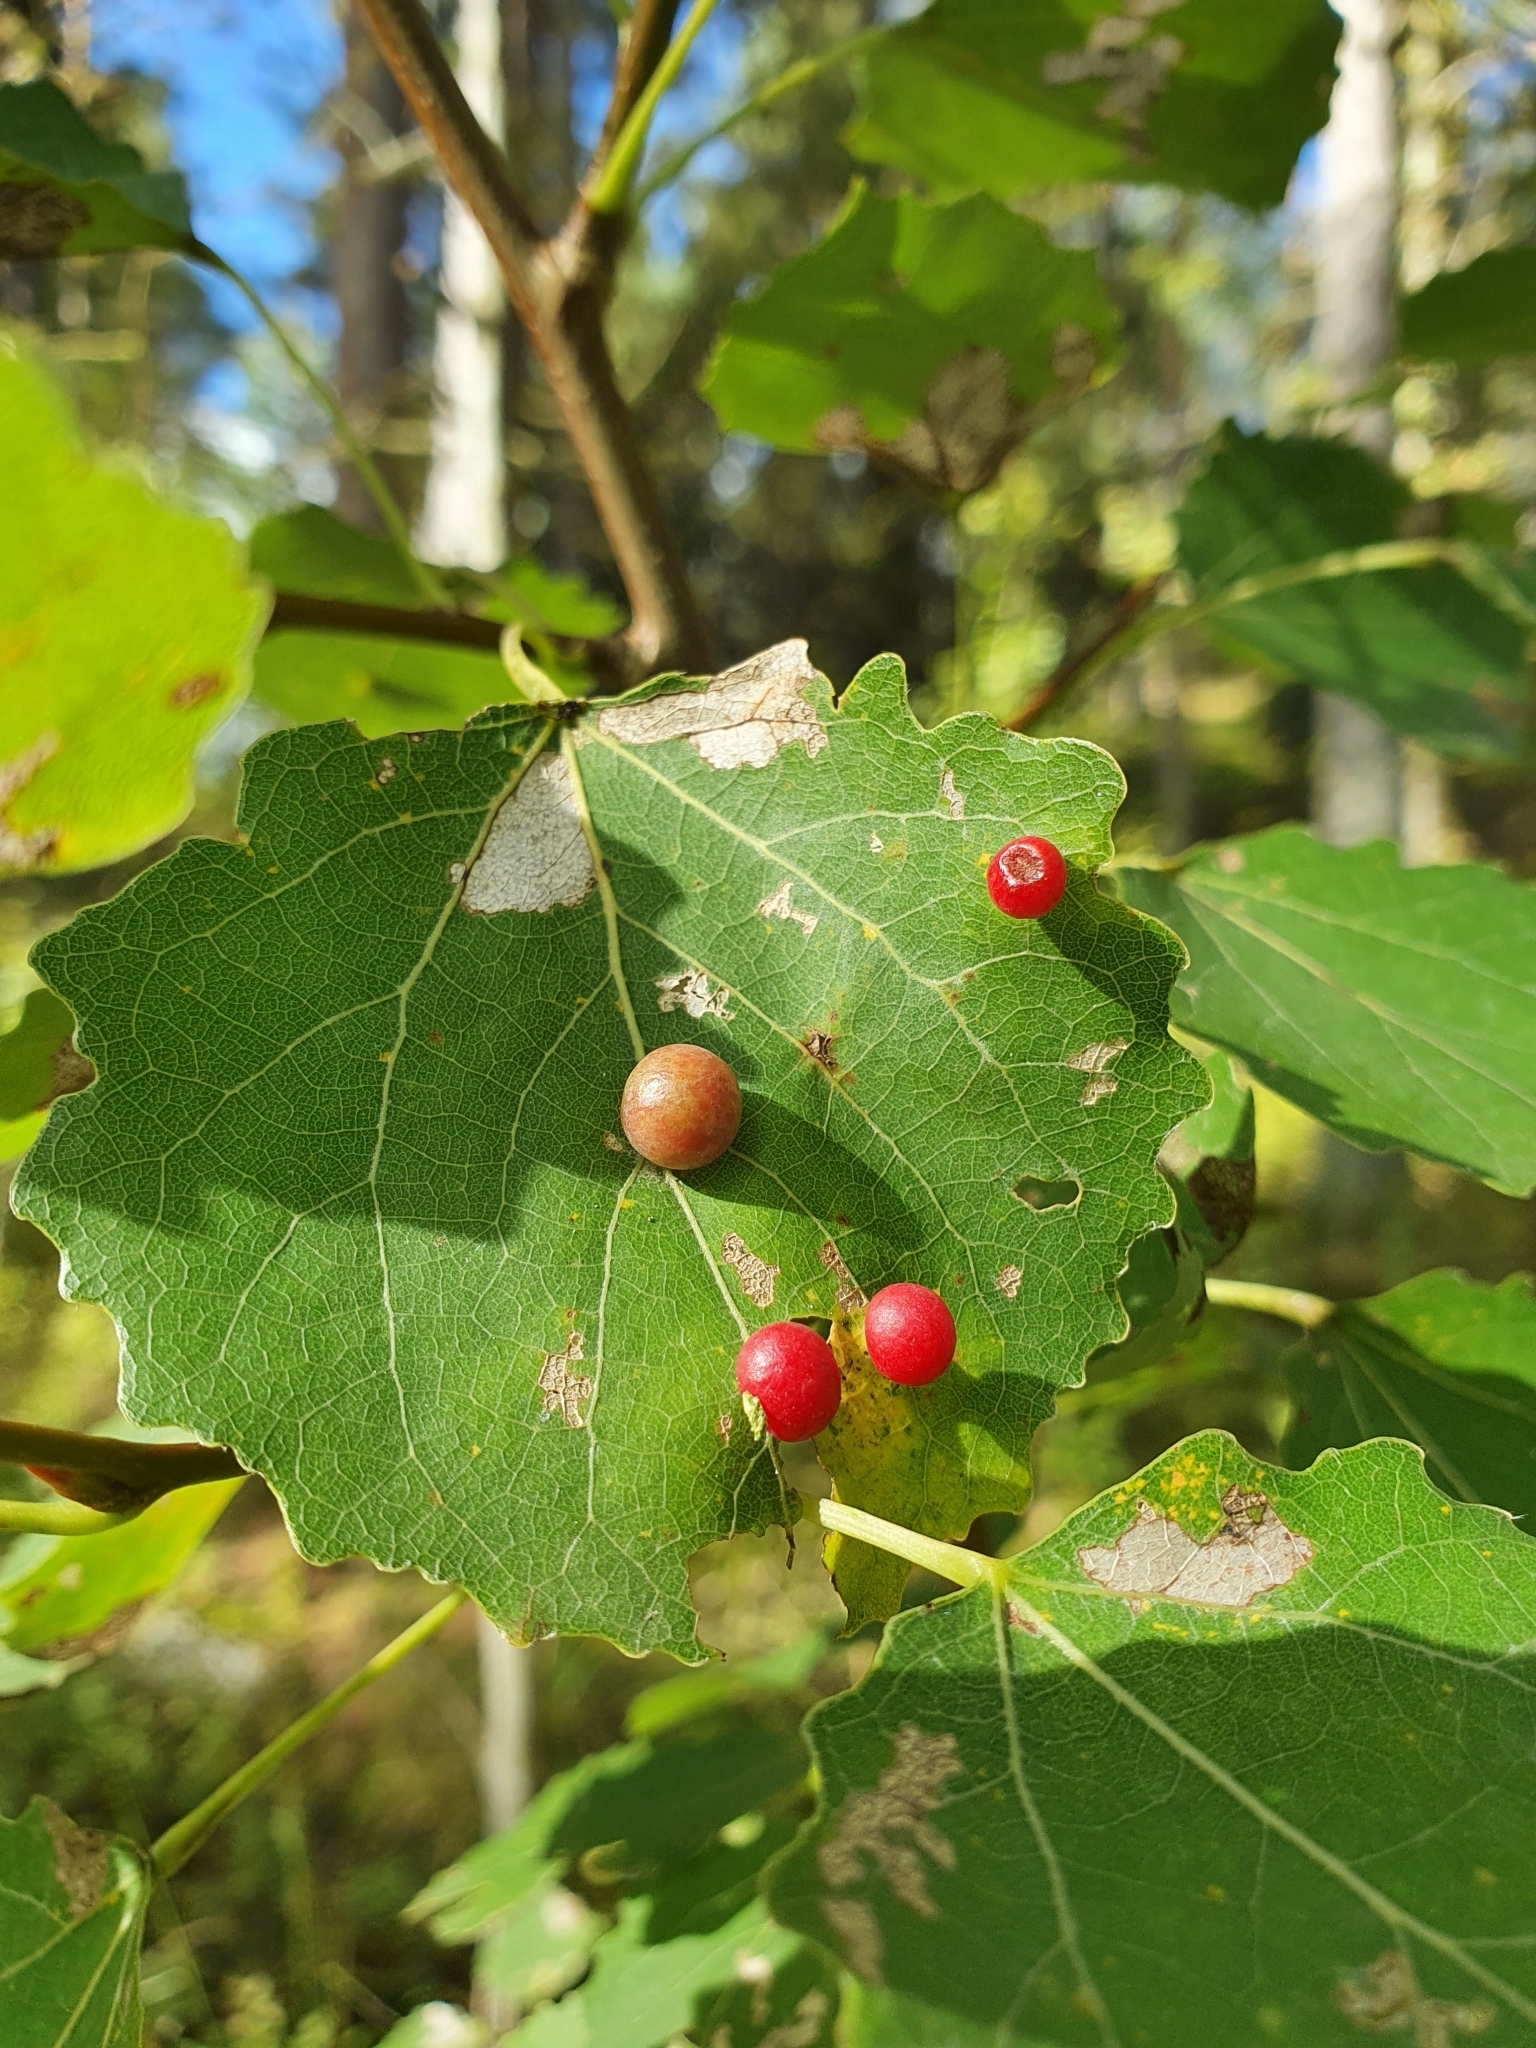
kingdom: Animalia
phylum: Arthropoda
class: Insecta
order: Diptera
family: Cecidomyiidae
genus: Harmandiola
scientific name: Harmandiola tremulae
